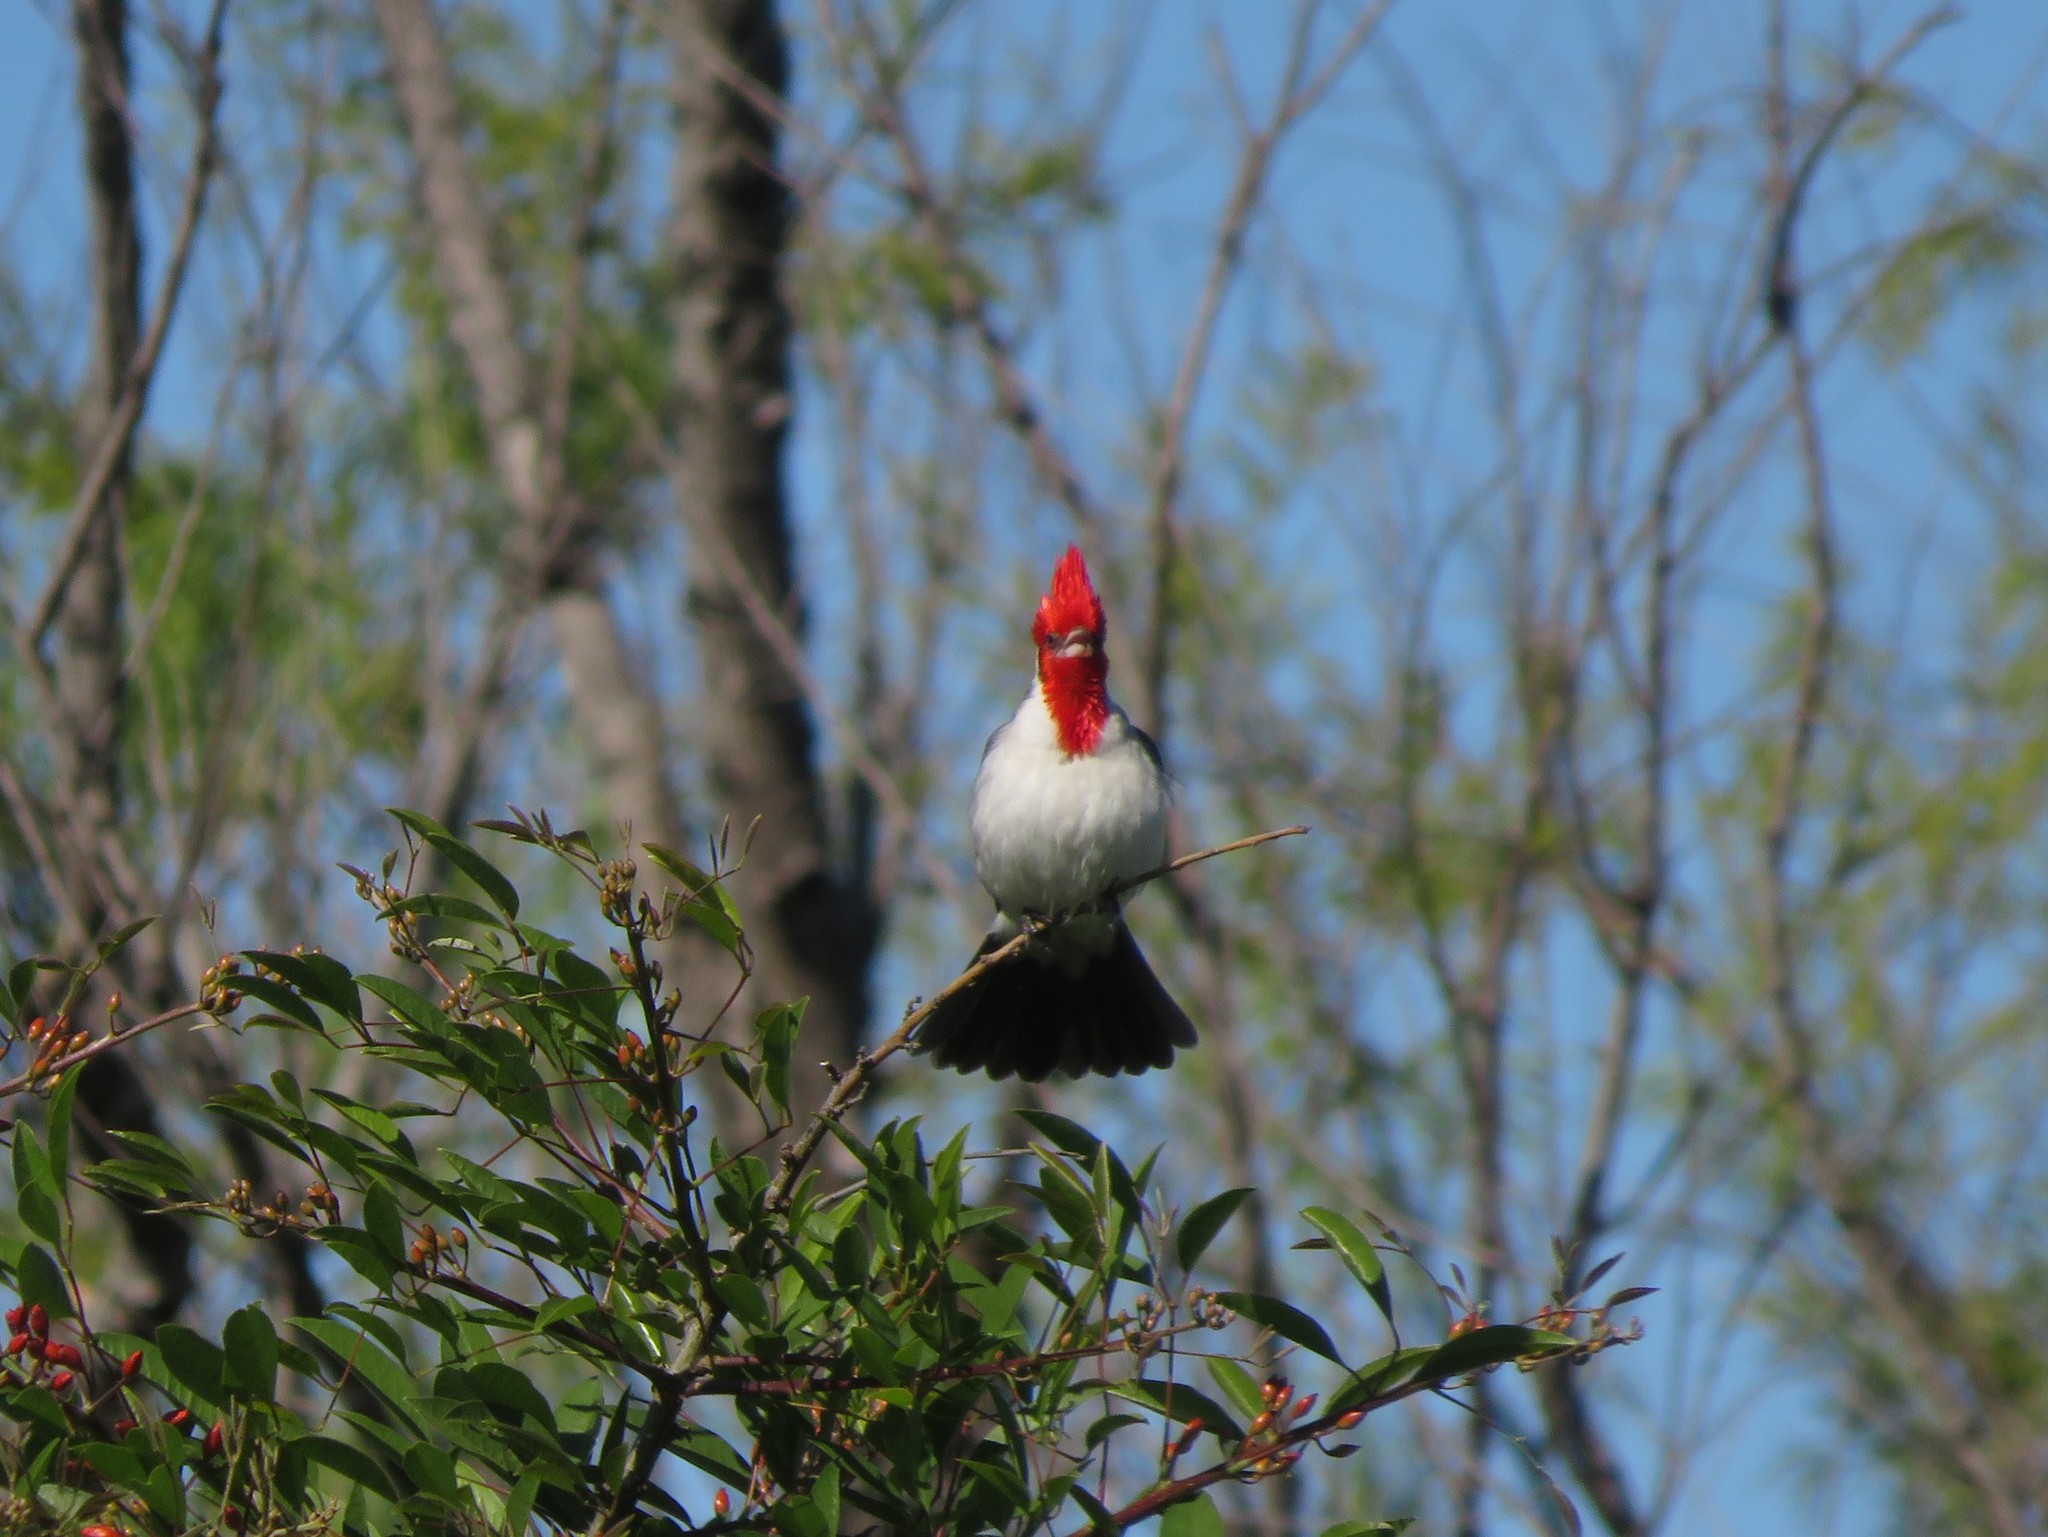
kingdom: Animalia
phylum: Chordata
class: Aves
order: Passeriformes
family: Thraupidae
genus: Paroaria
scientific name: Paroaria coronata
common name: Red-crested cardinal
